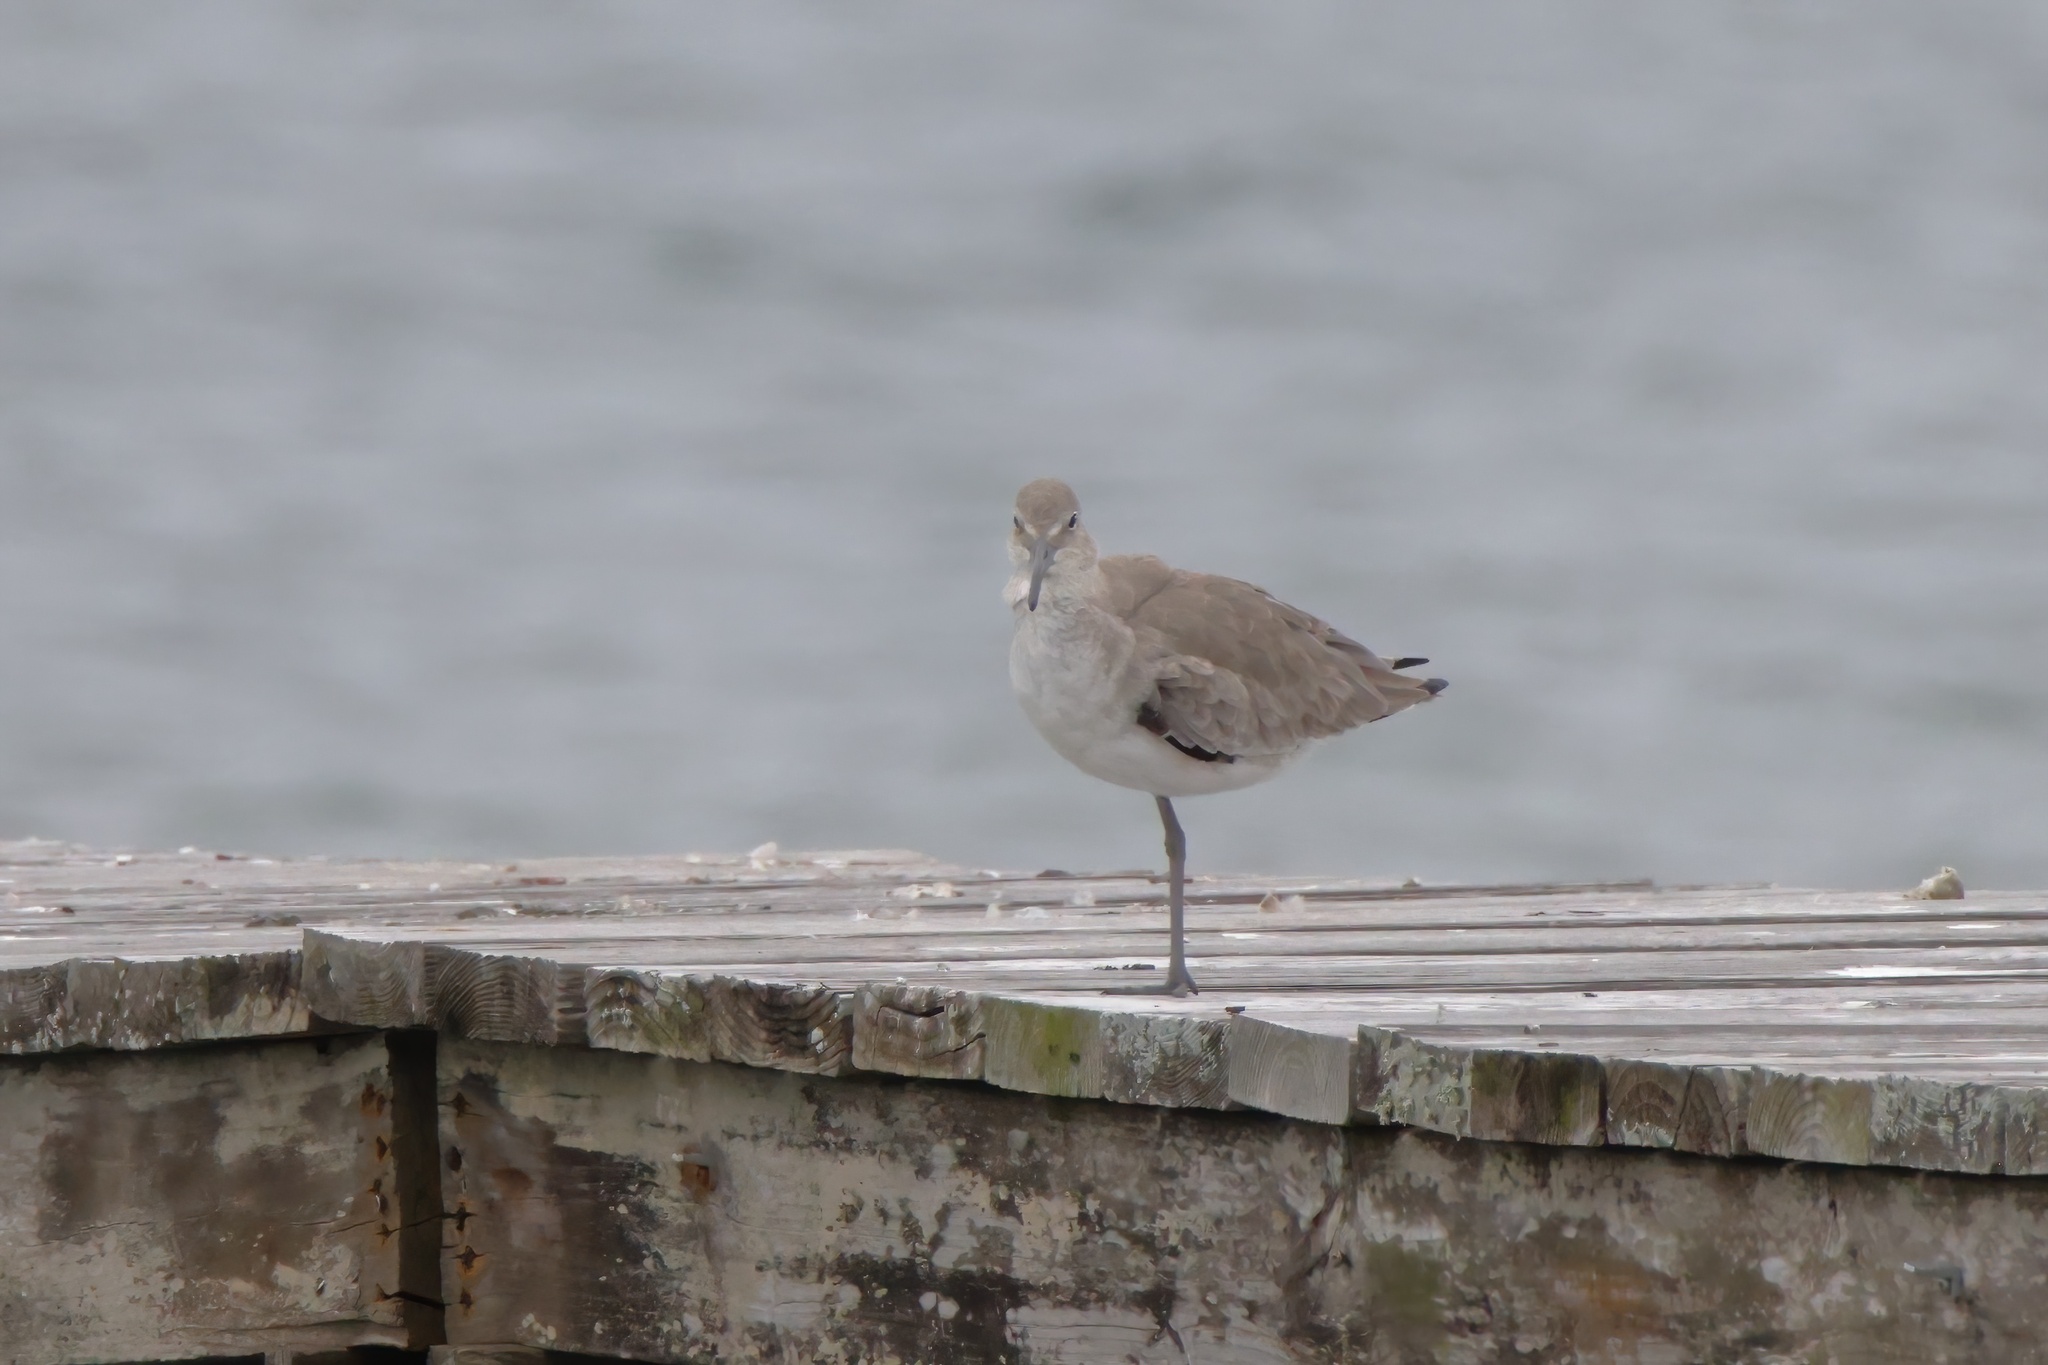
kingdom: Animalia
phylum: Chordata
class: Aves
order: Charadriiformes
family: Scolopacidae
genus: Tringa
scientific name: Tringa semipalmata
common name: Willet
